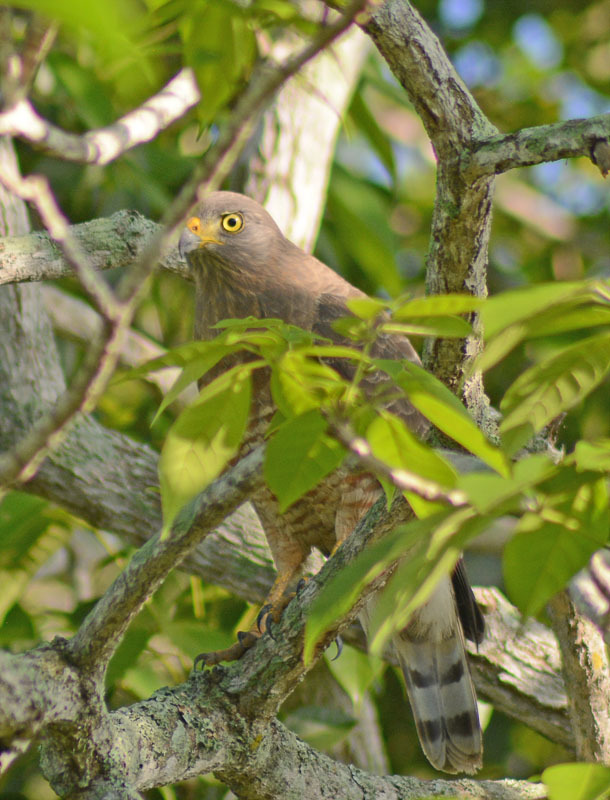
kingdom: Animalia
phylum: Chordata
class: Aves
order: Accipitriformes
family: Accipitridae
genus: Rupornis
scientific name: Rupornis magnirostris
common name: Roadside hawk
